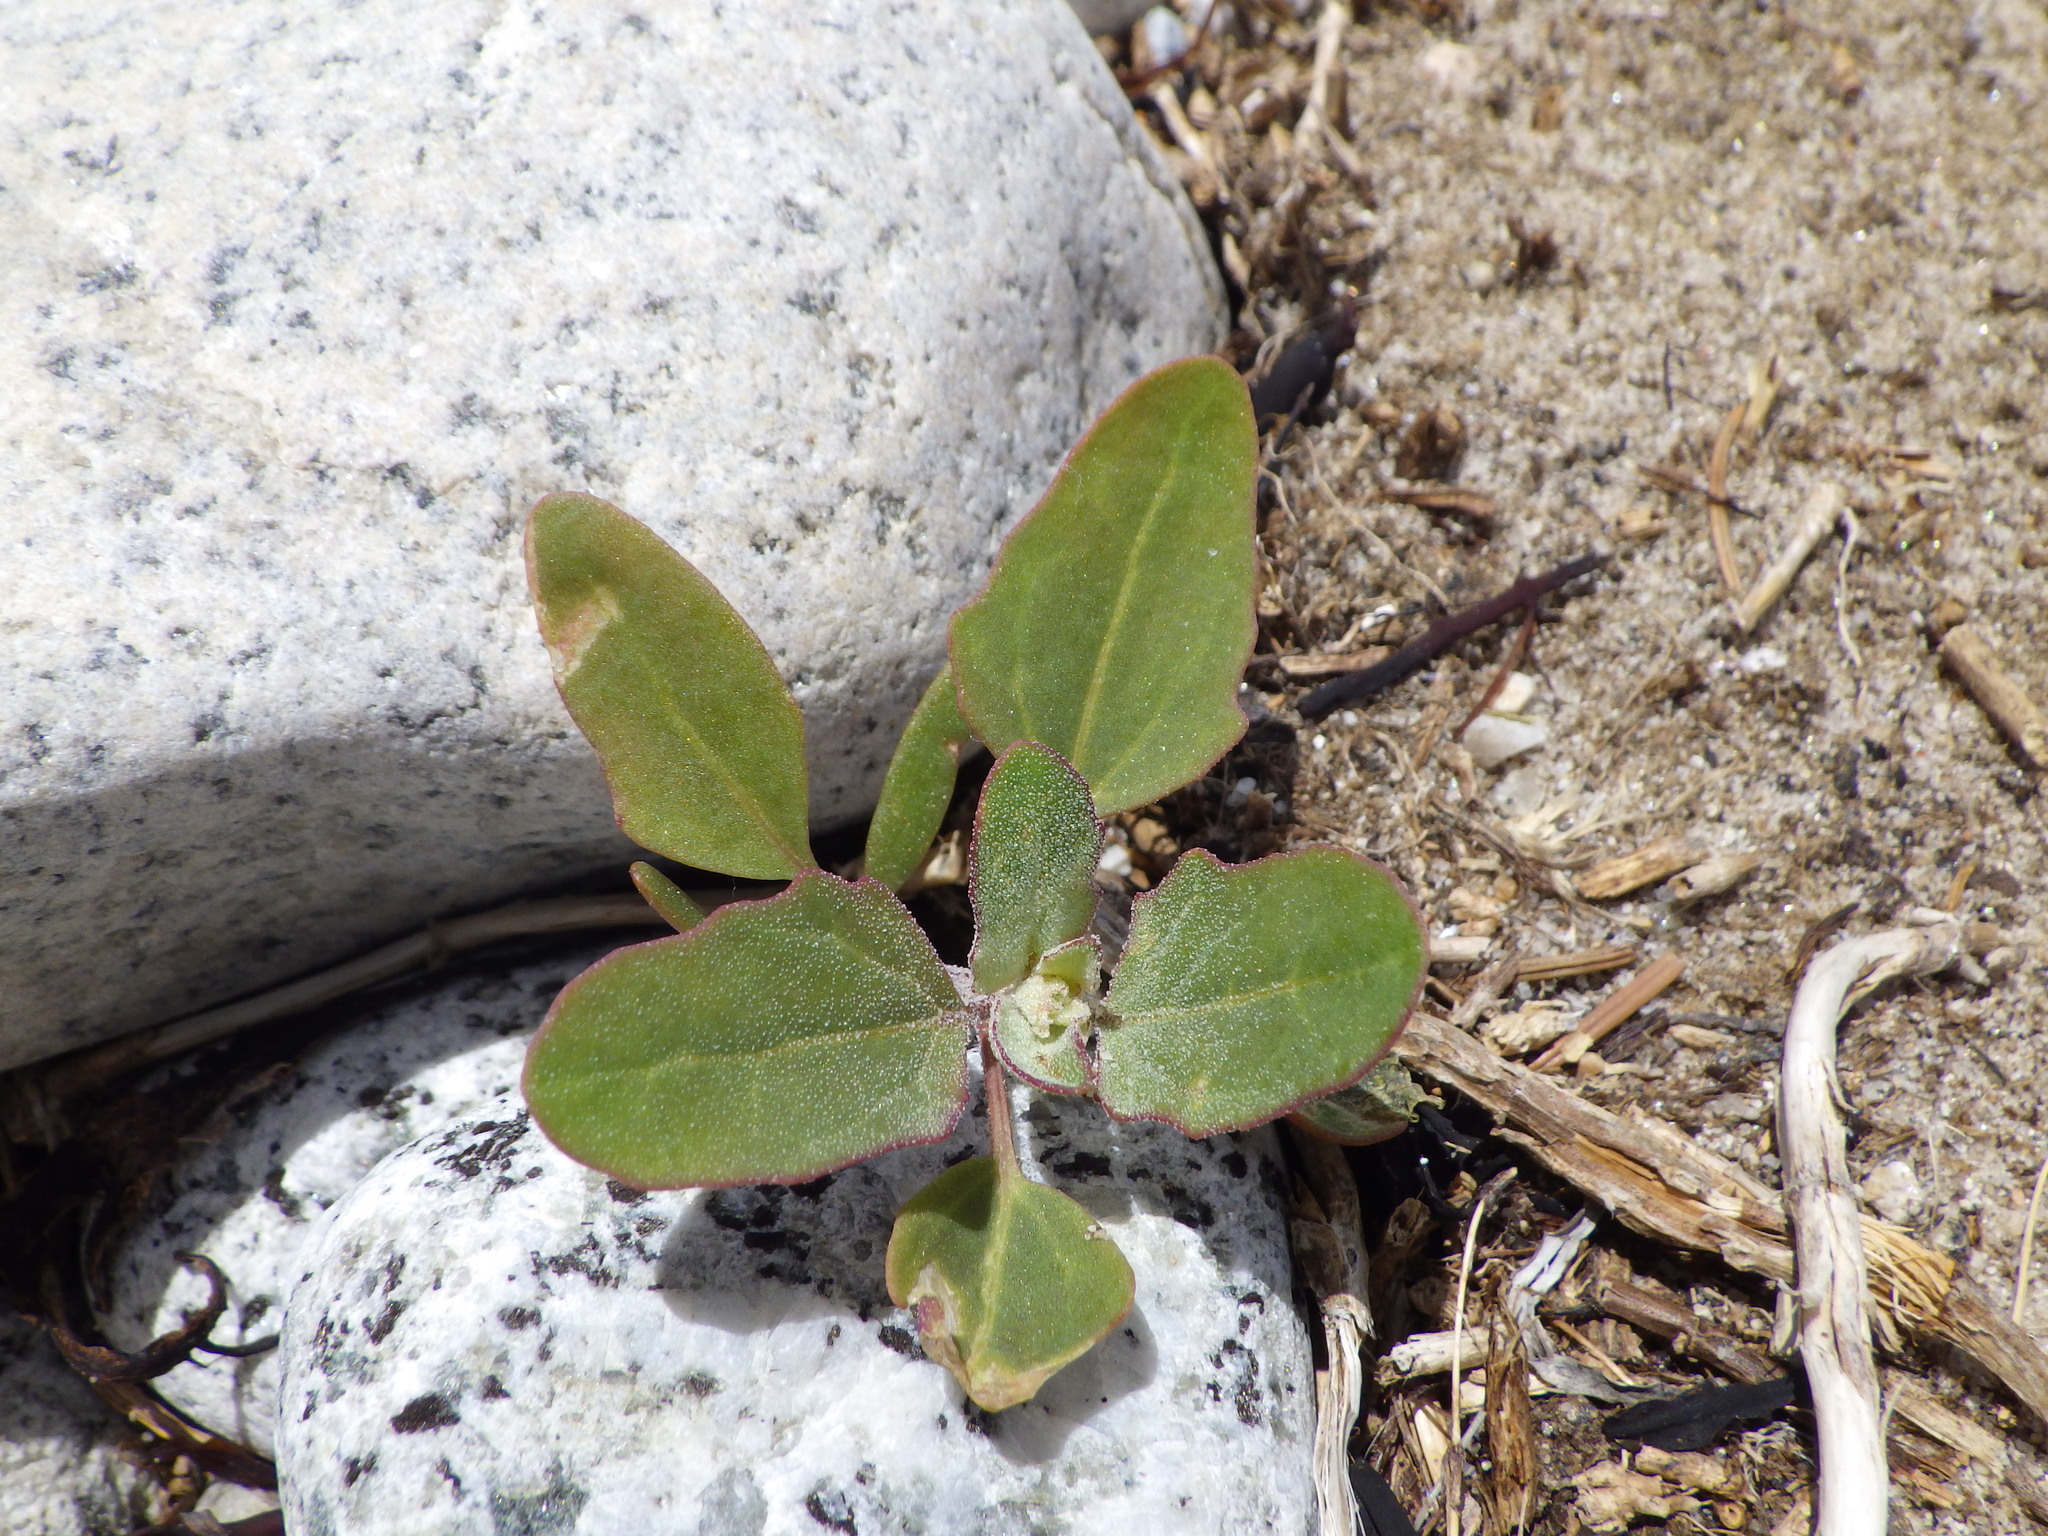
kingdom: Plantae
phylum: Tracheophyta
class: Magnoliopsida
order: Caryophyllales
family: Amaranthaceae
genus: Atriplex
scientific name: Atriplex prostrata
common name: Spear-leaved orache
